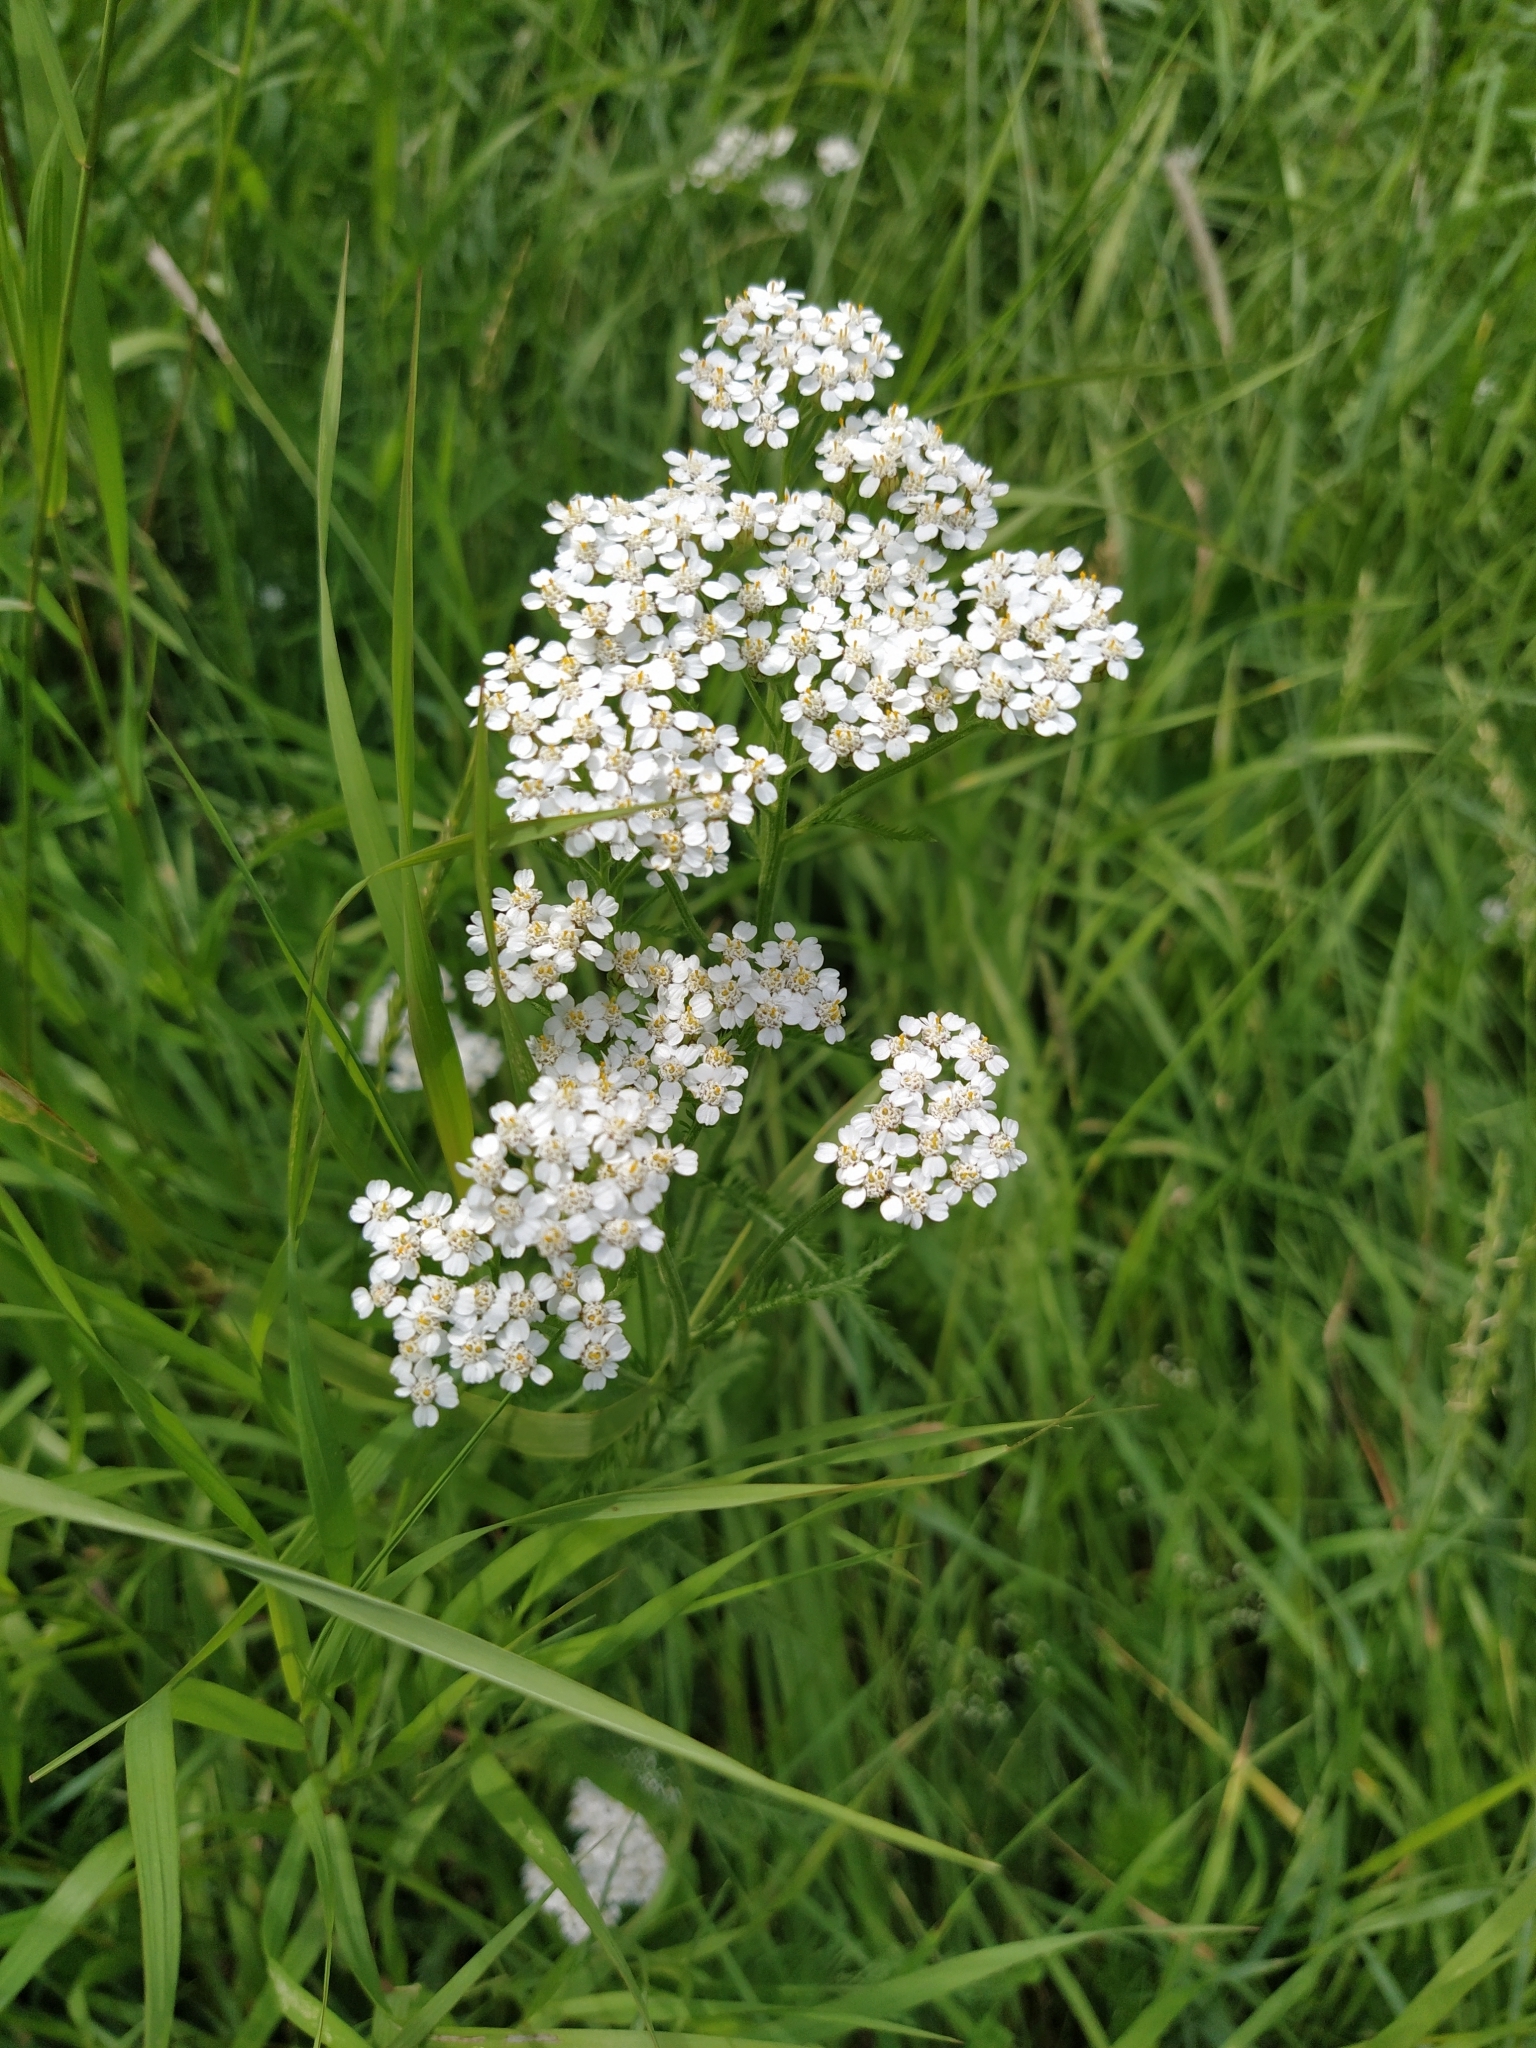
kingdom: Plantae
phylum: Tracheophyta
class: Magnoliopsida
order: Asterales
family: Asteraceae
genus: Achillea
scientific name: Achillea millefolium
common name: Yarrow
